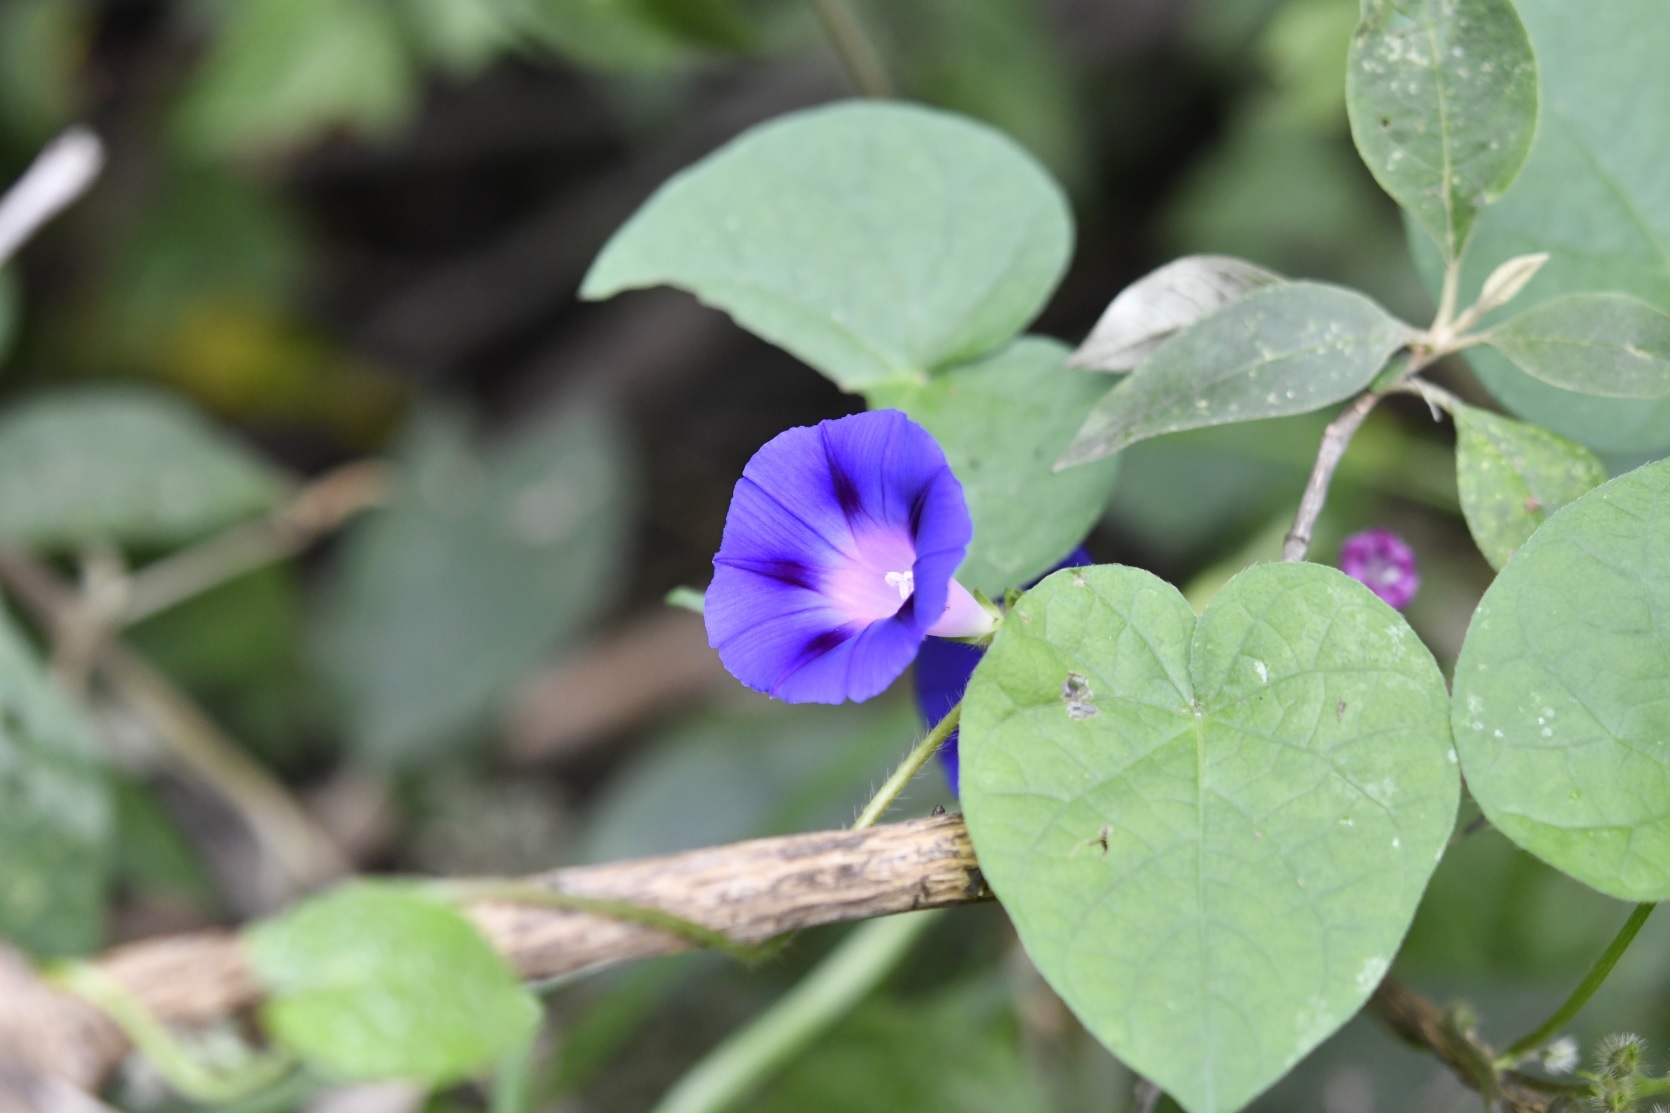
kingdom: Plantae
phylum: Tracheophyta
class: Magnoliopsida
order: Solanales
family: Convolvulaceae
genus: Ipomoea
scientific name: Ipomoea purpurea
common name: Common morning-glory
